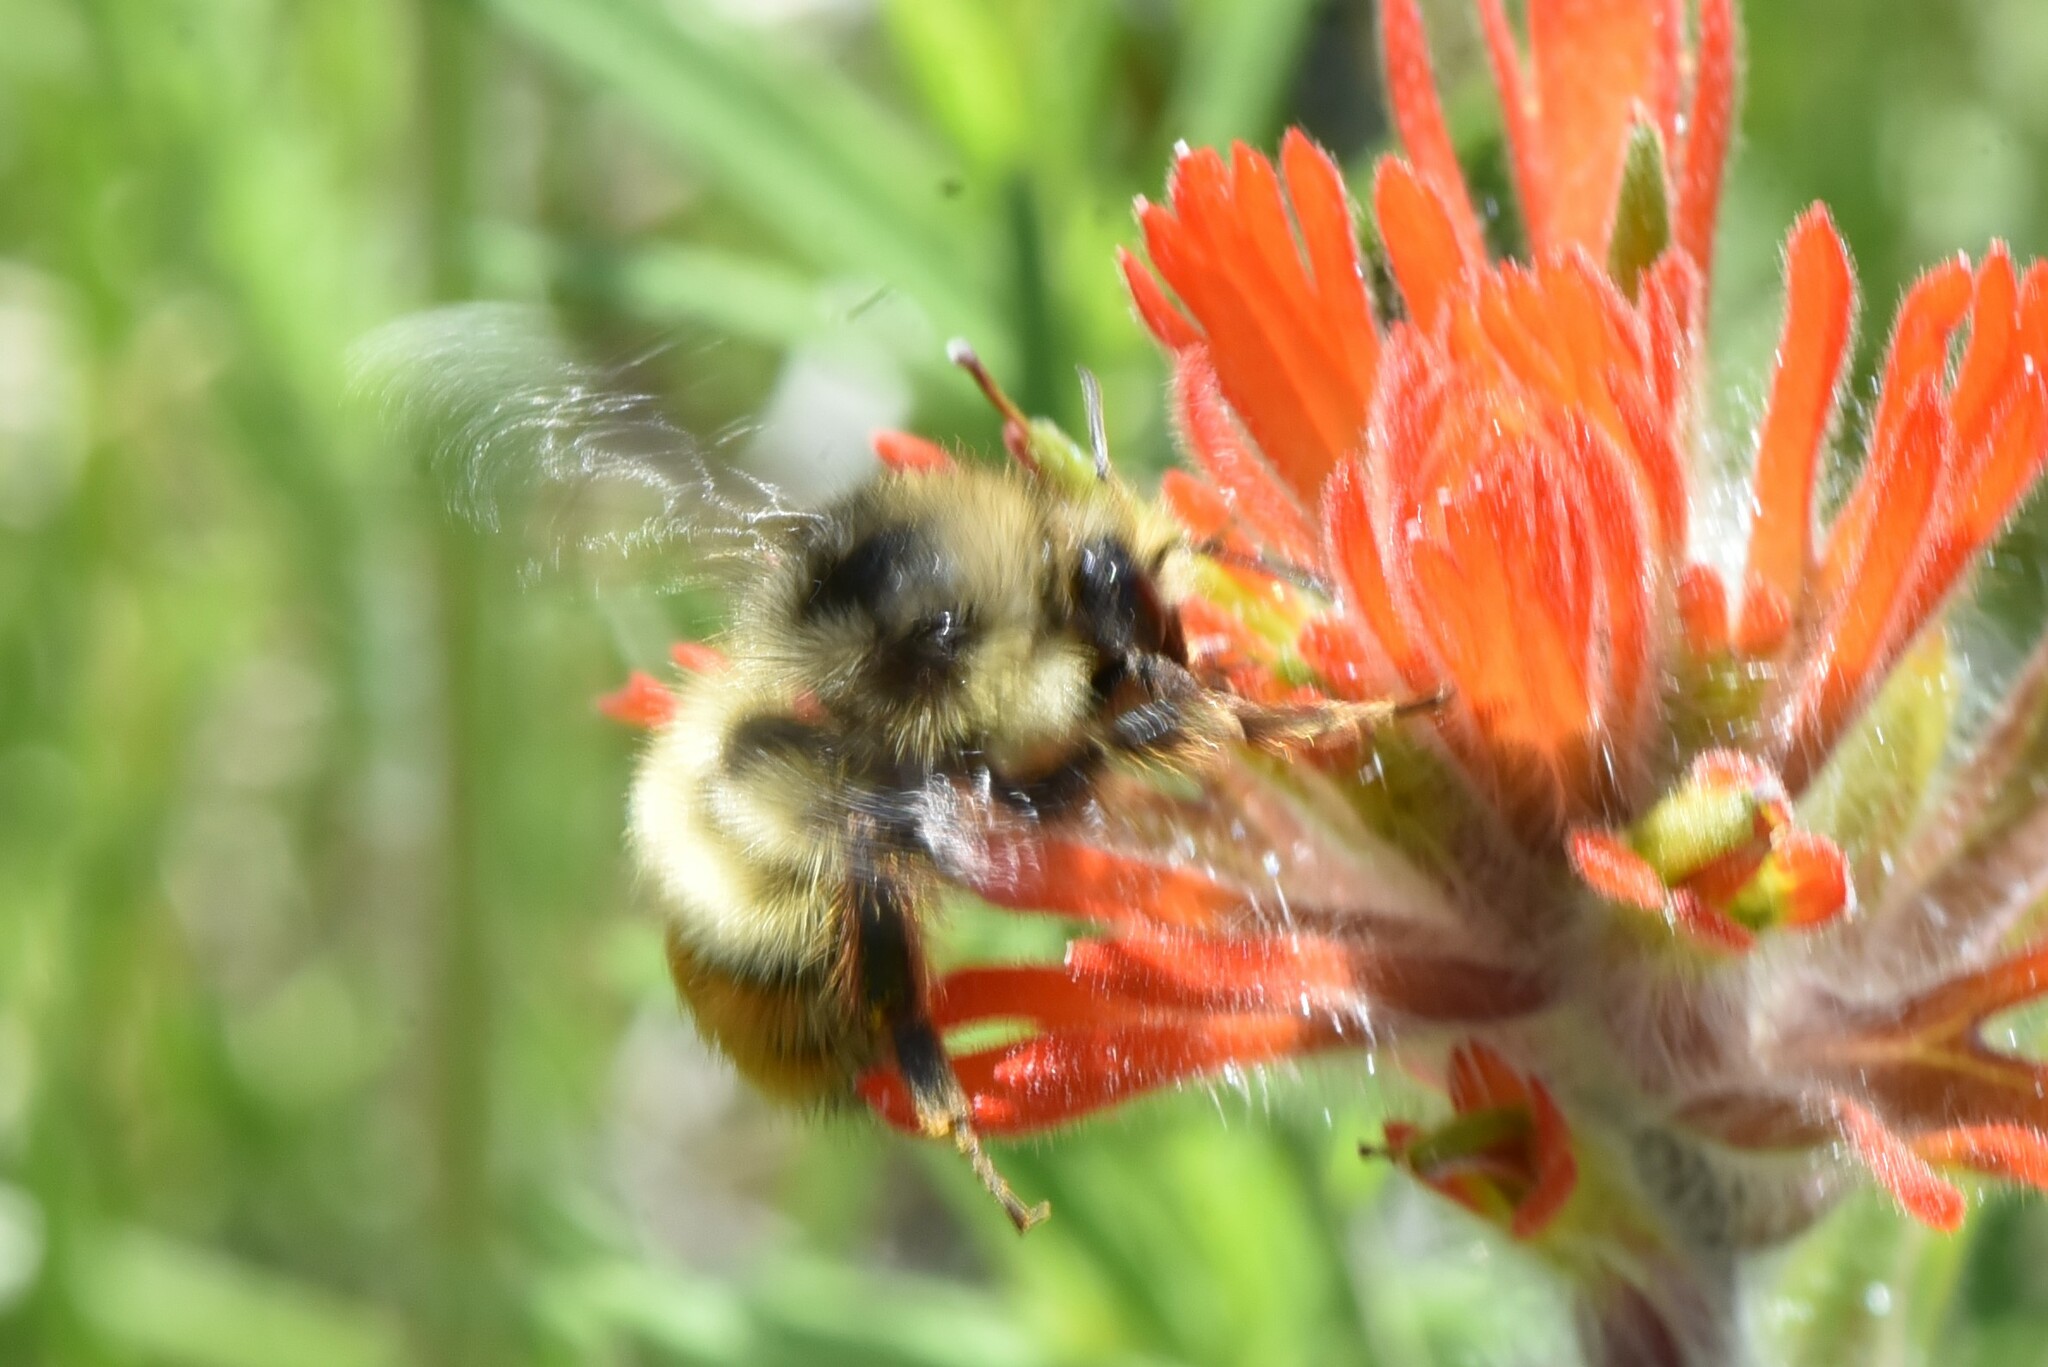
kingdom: Animalia
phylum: Arthropoda
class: Insecta
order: Hymenoptera
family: Apidae
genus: Bombus
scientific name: Bombus centralis
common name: Central bumble bee
